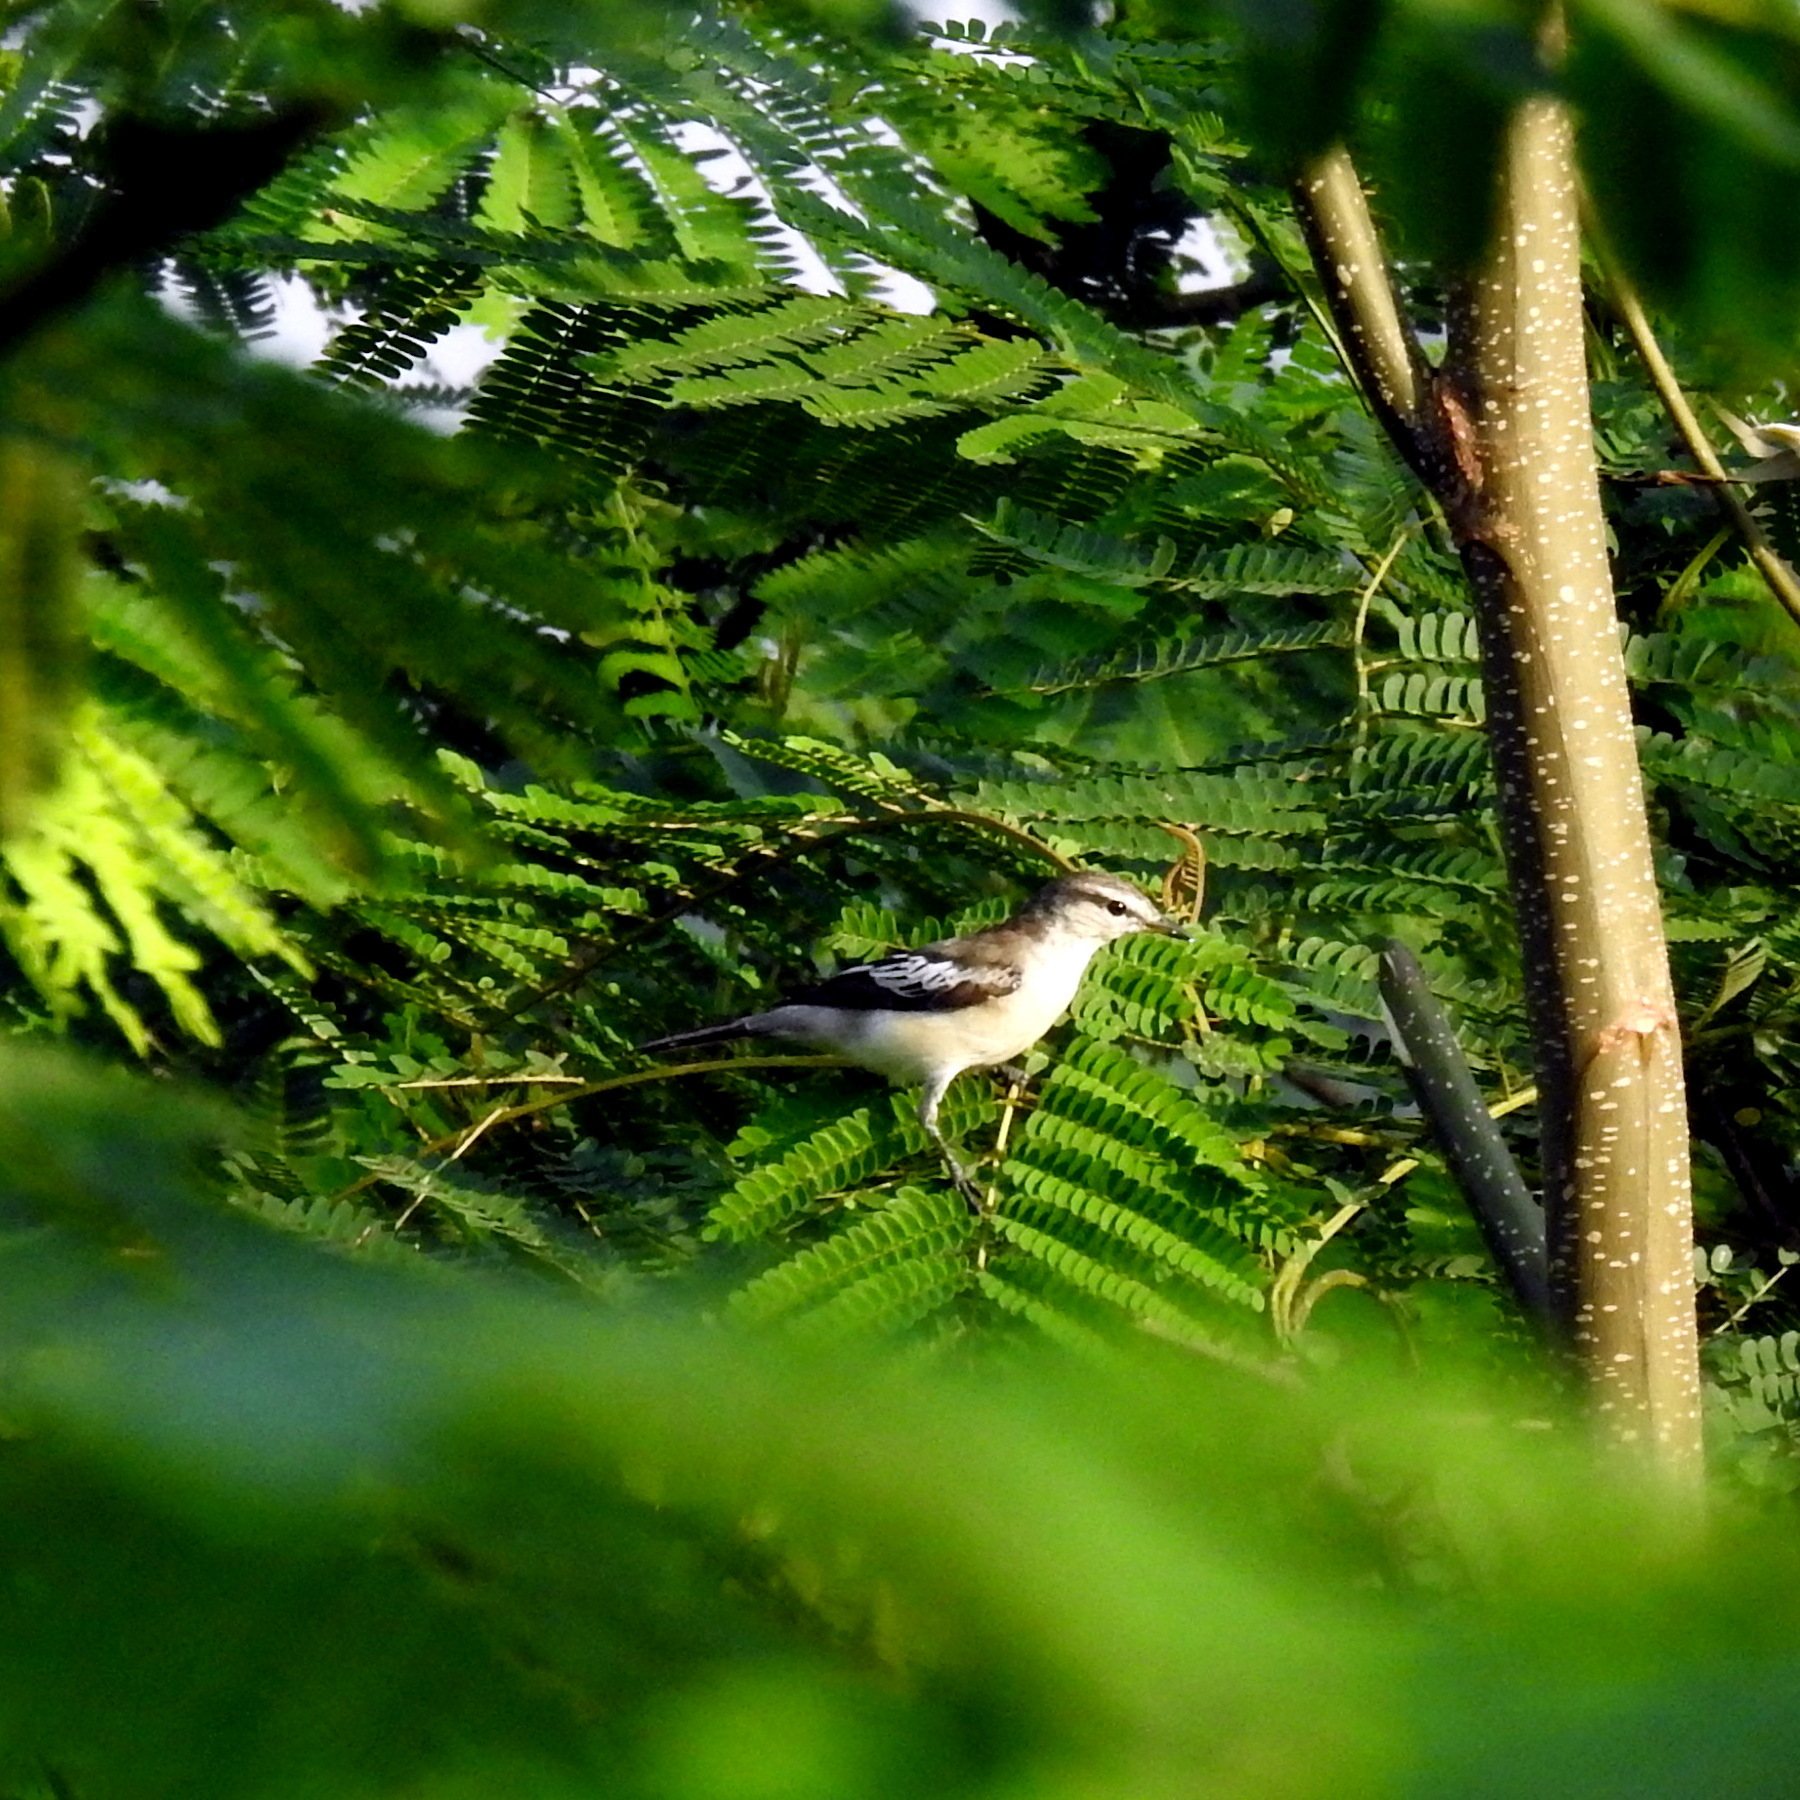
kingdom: Animalia
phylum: Chordata
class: Aves
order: Passeriformes
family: Campephagidae
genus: Lalage
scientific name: Lalage sueurii
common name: White-shouldered triller
